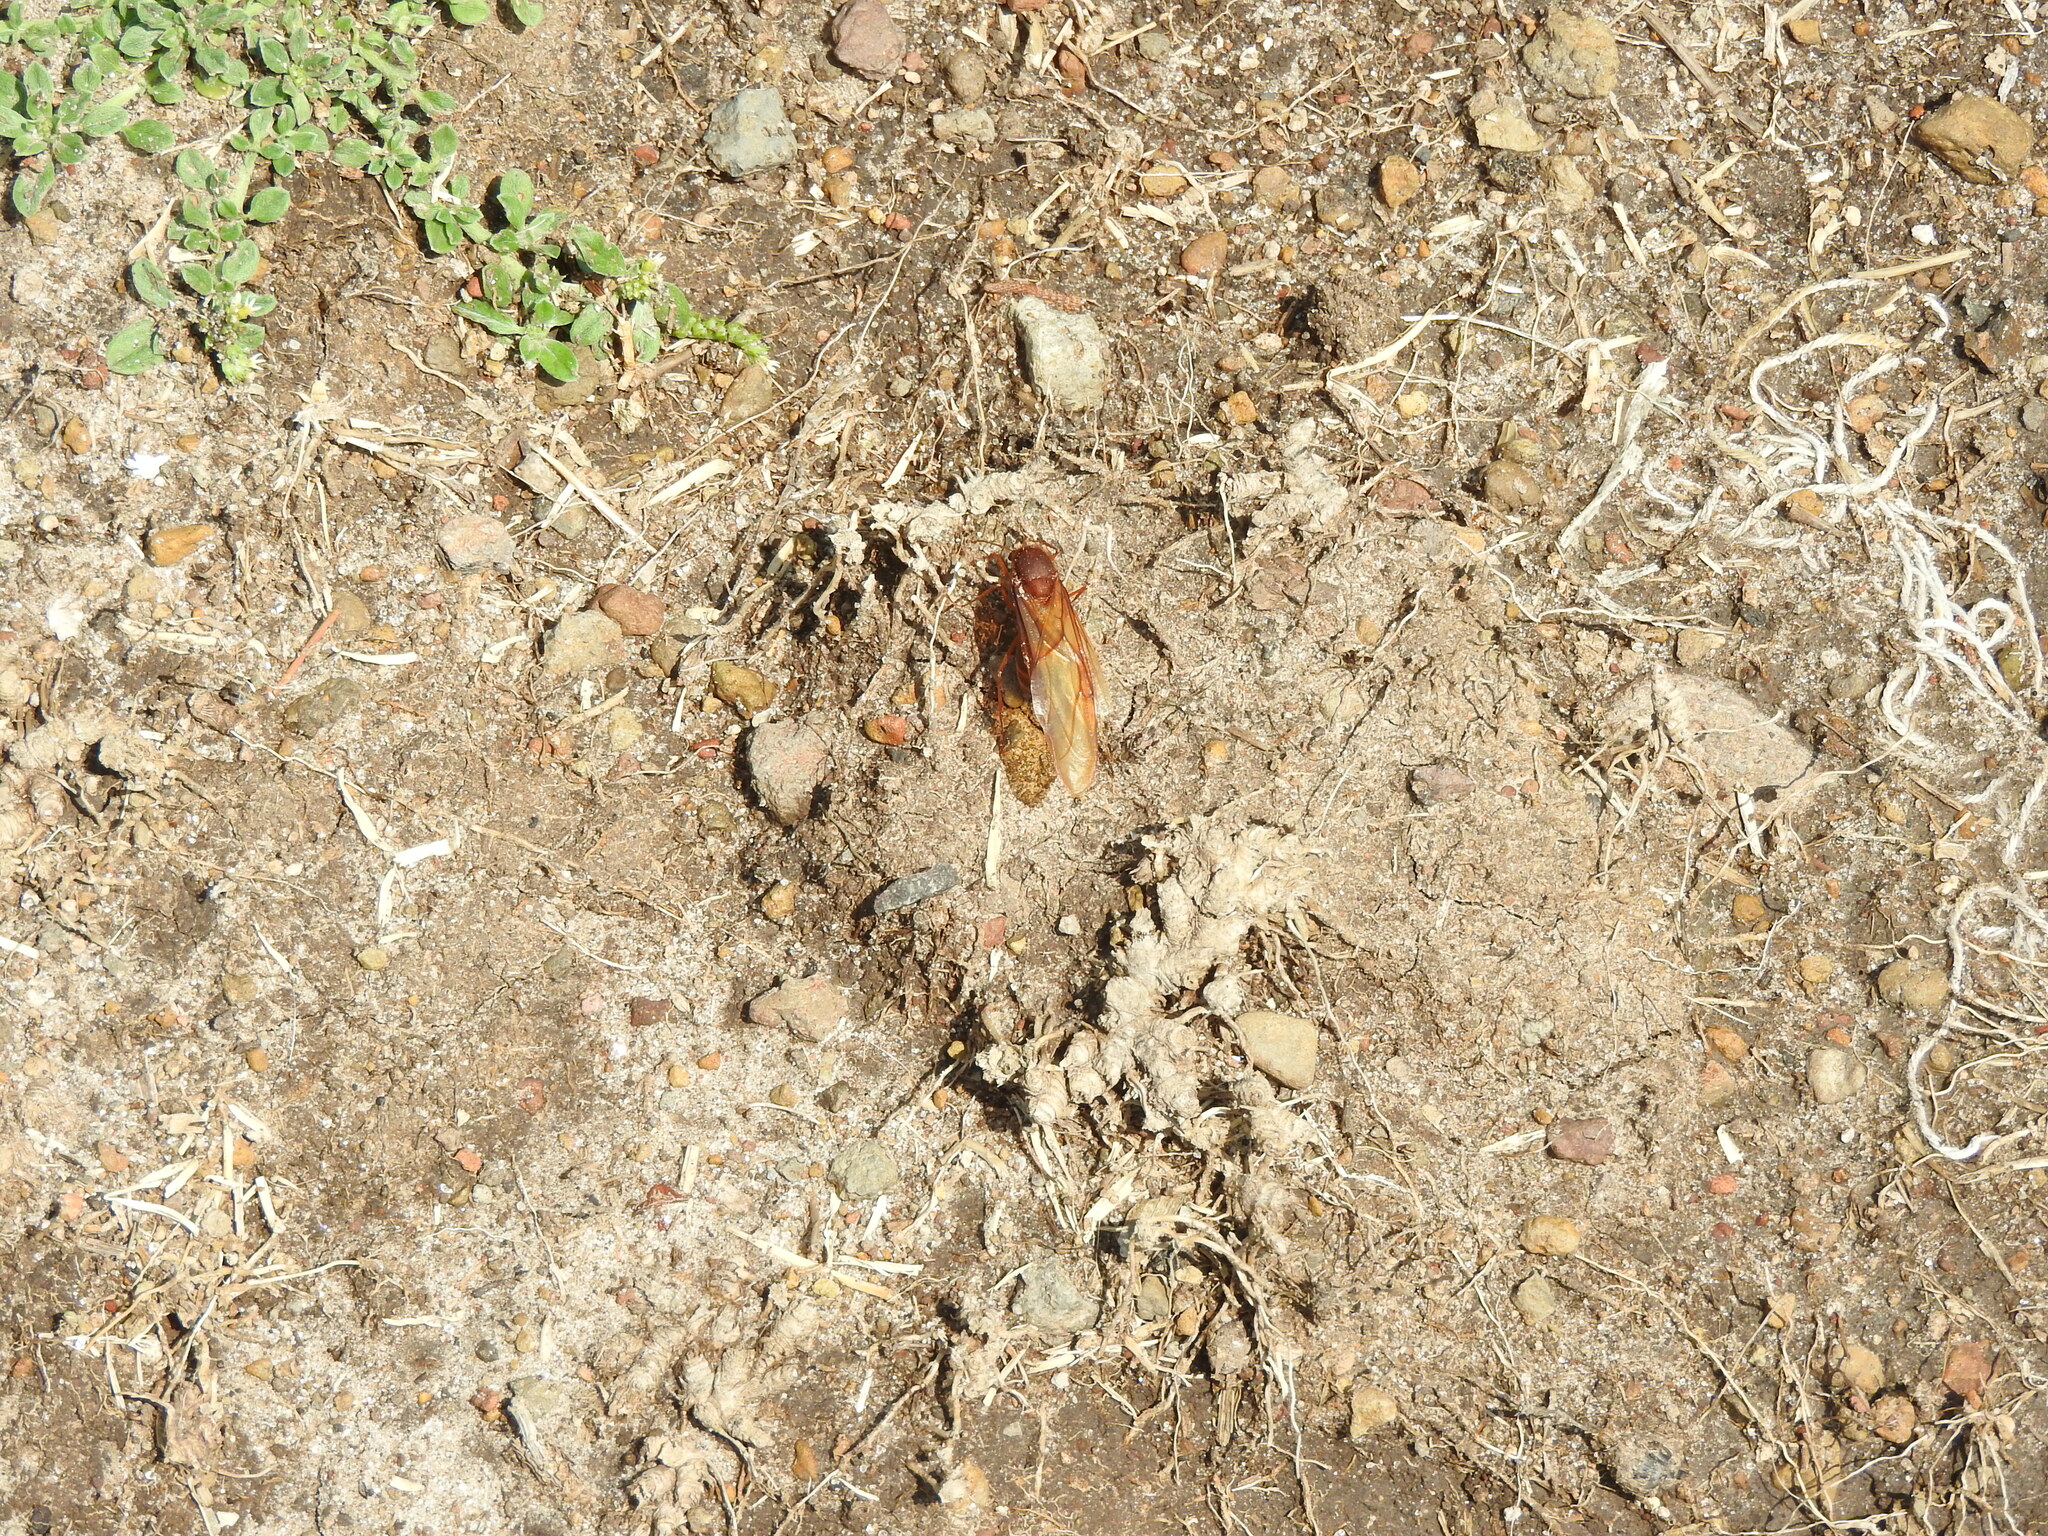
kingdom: Animalia
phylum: Arthropoda
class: Insecta
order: Hymenoptera
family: Formicidae
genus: Atta
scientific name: Atta mexicana
